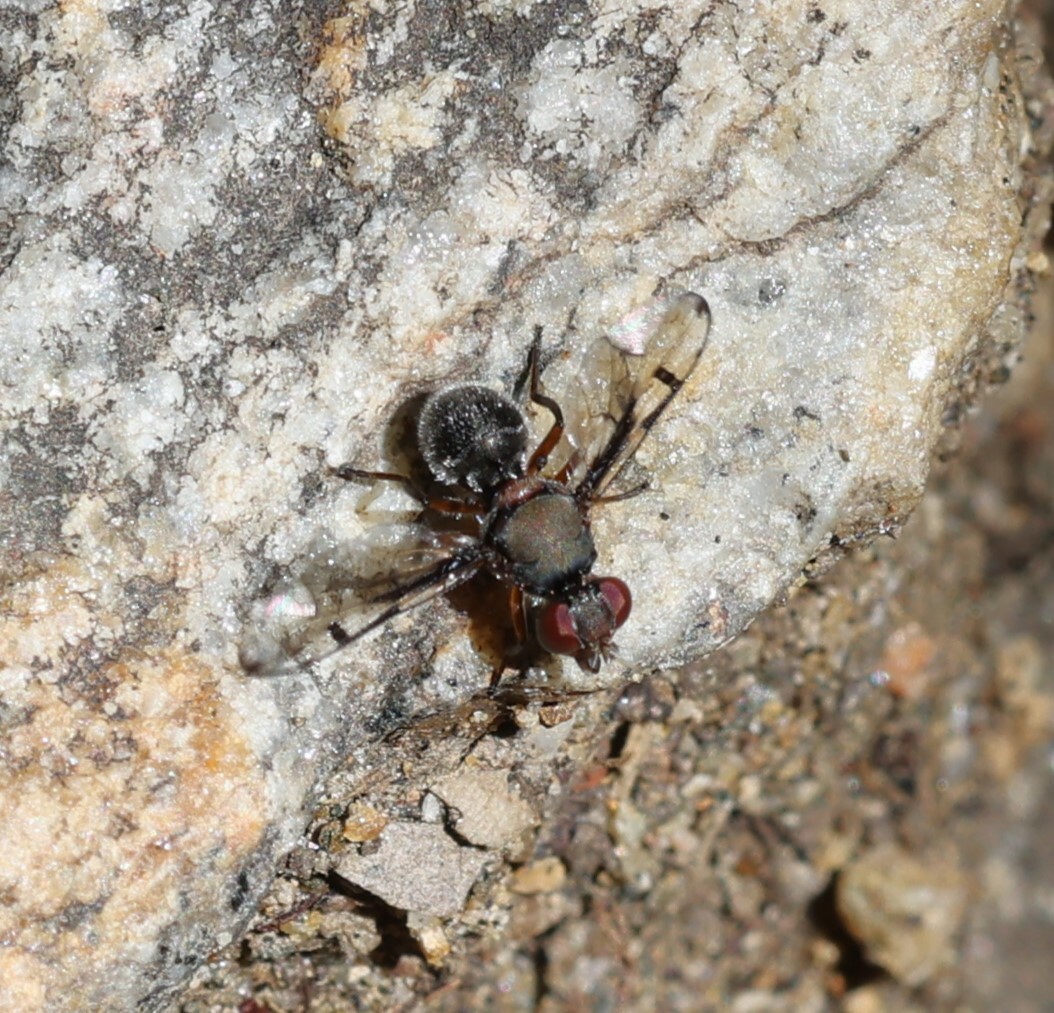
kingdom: Animalia
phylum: Arthropoda
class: Insecta
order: Diptera
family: Platystomatidae
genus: Pogonortalis
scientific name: Pogonortalis doclea
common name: Boatman fly
